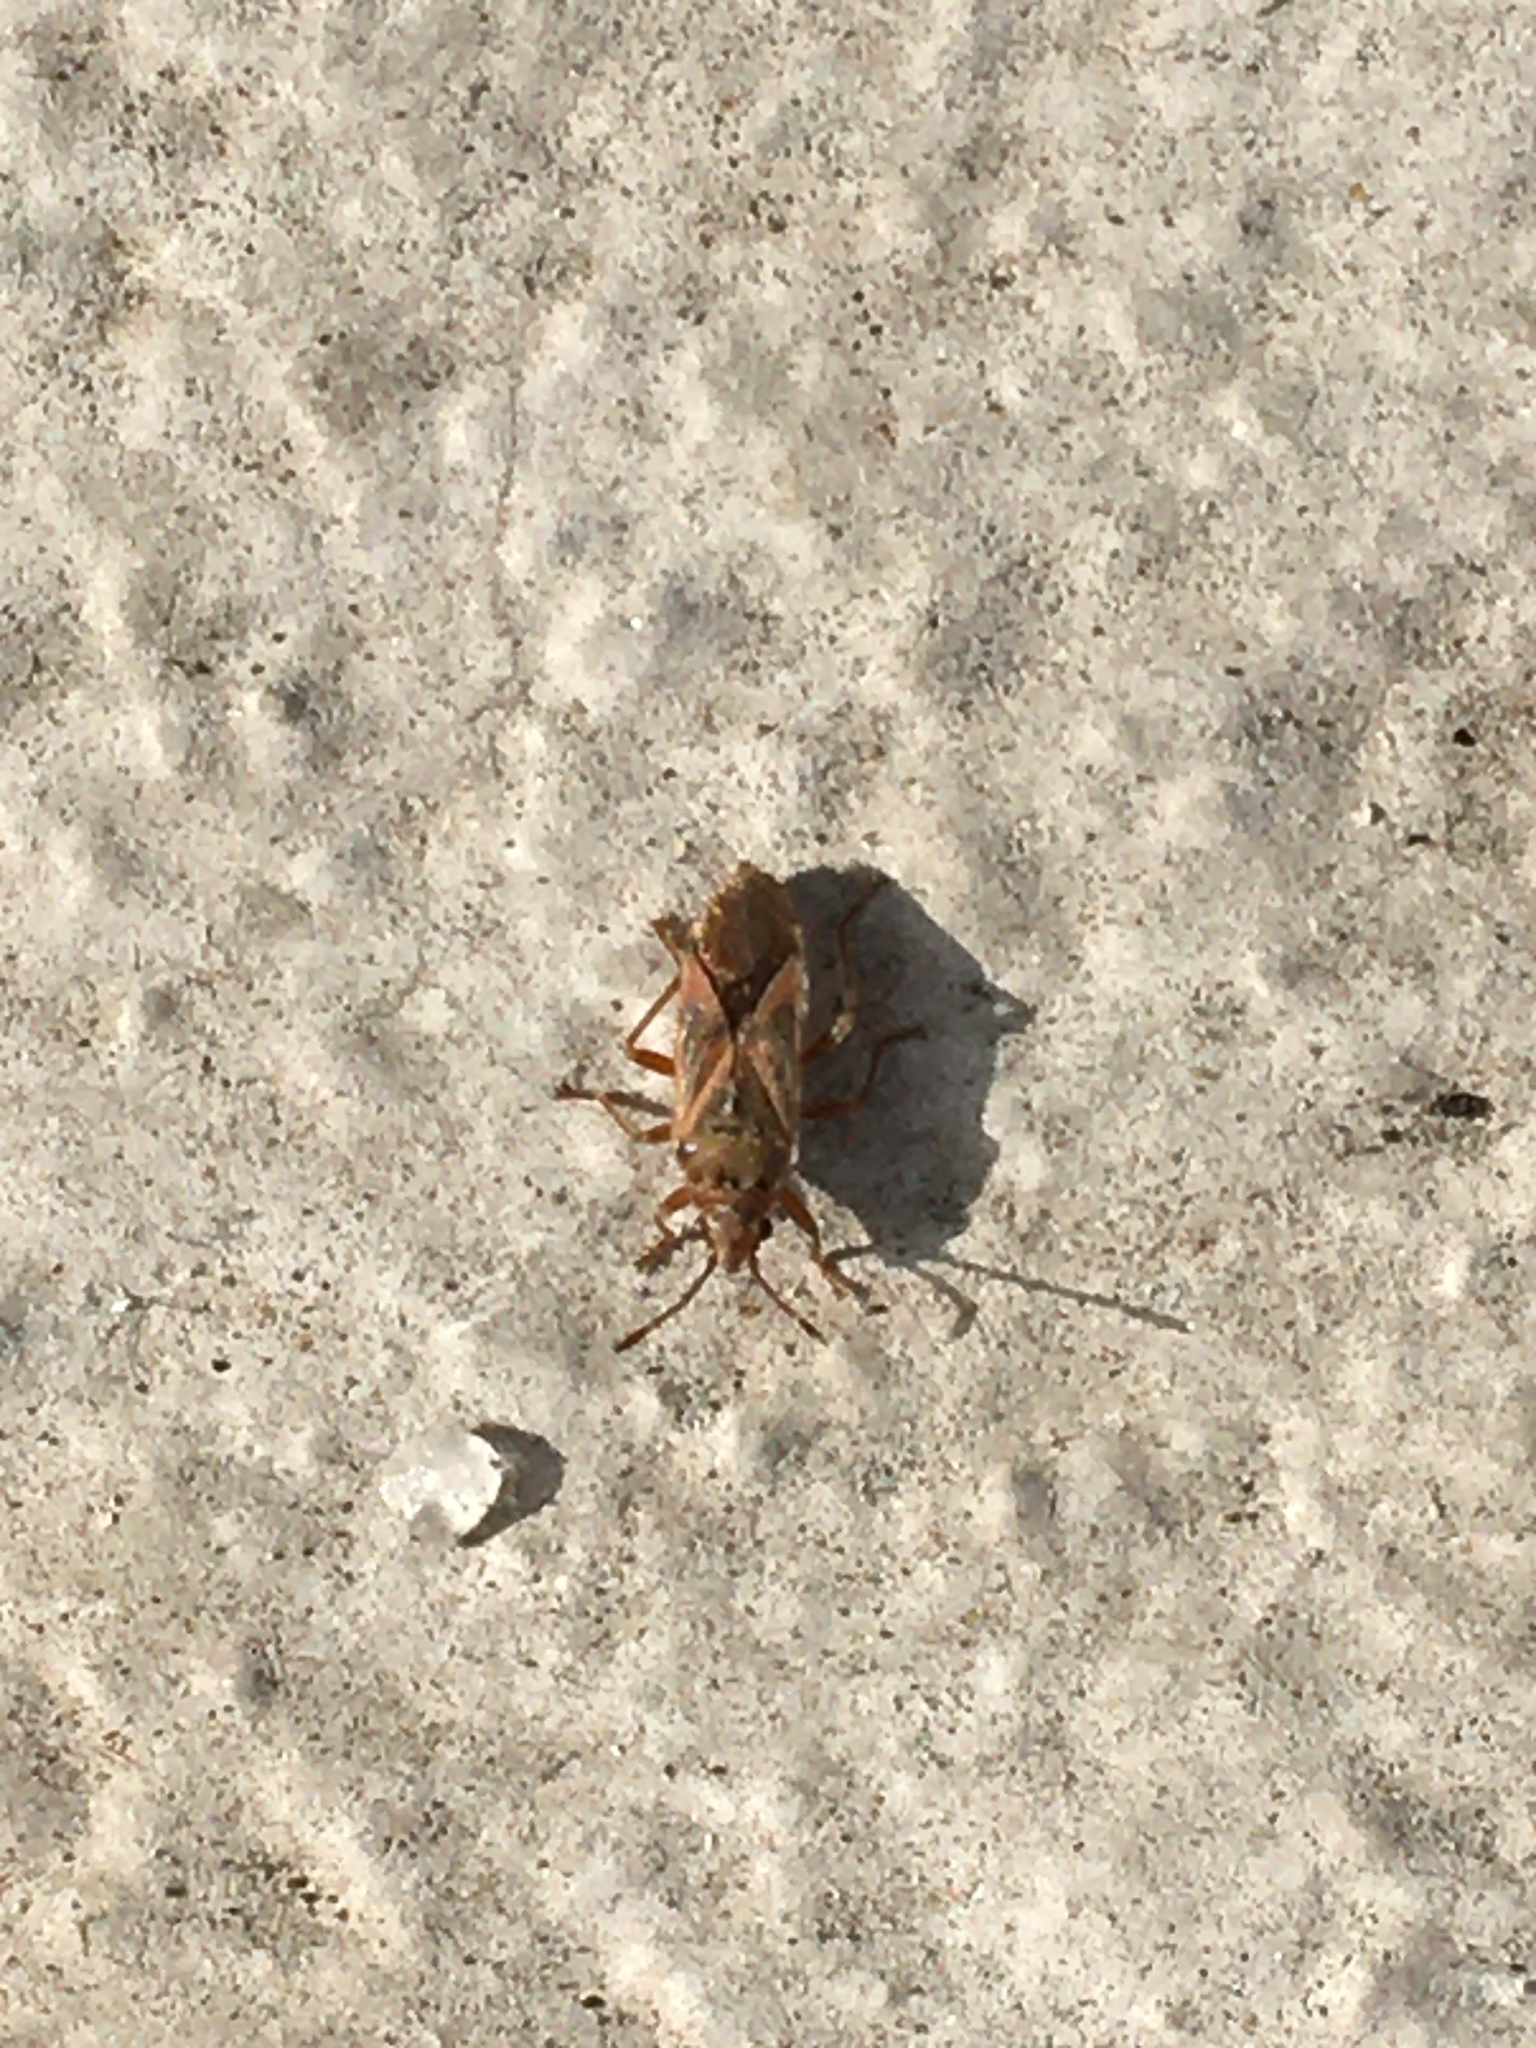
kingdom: Animalia
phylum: Arthropoda
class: Insecta
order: Hemiptera
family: Lygaeidae
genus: Arocatus
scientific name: Arocatus roeselii
